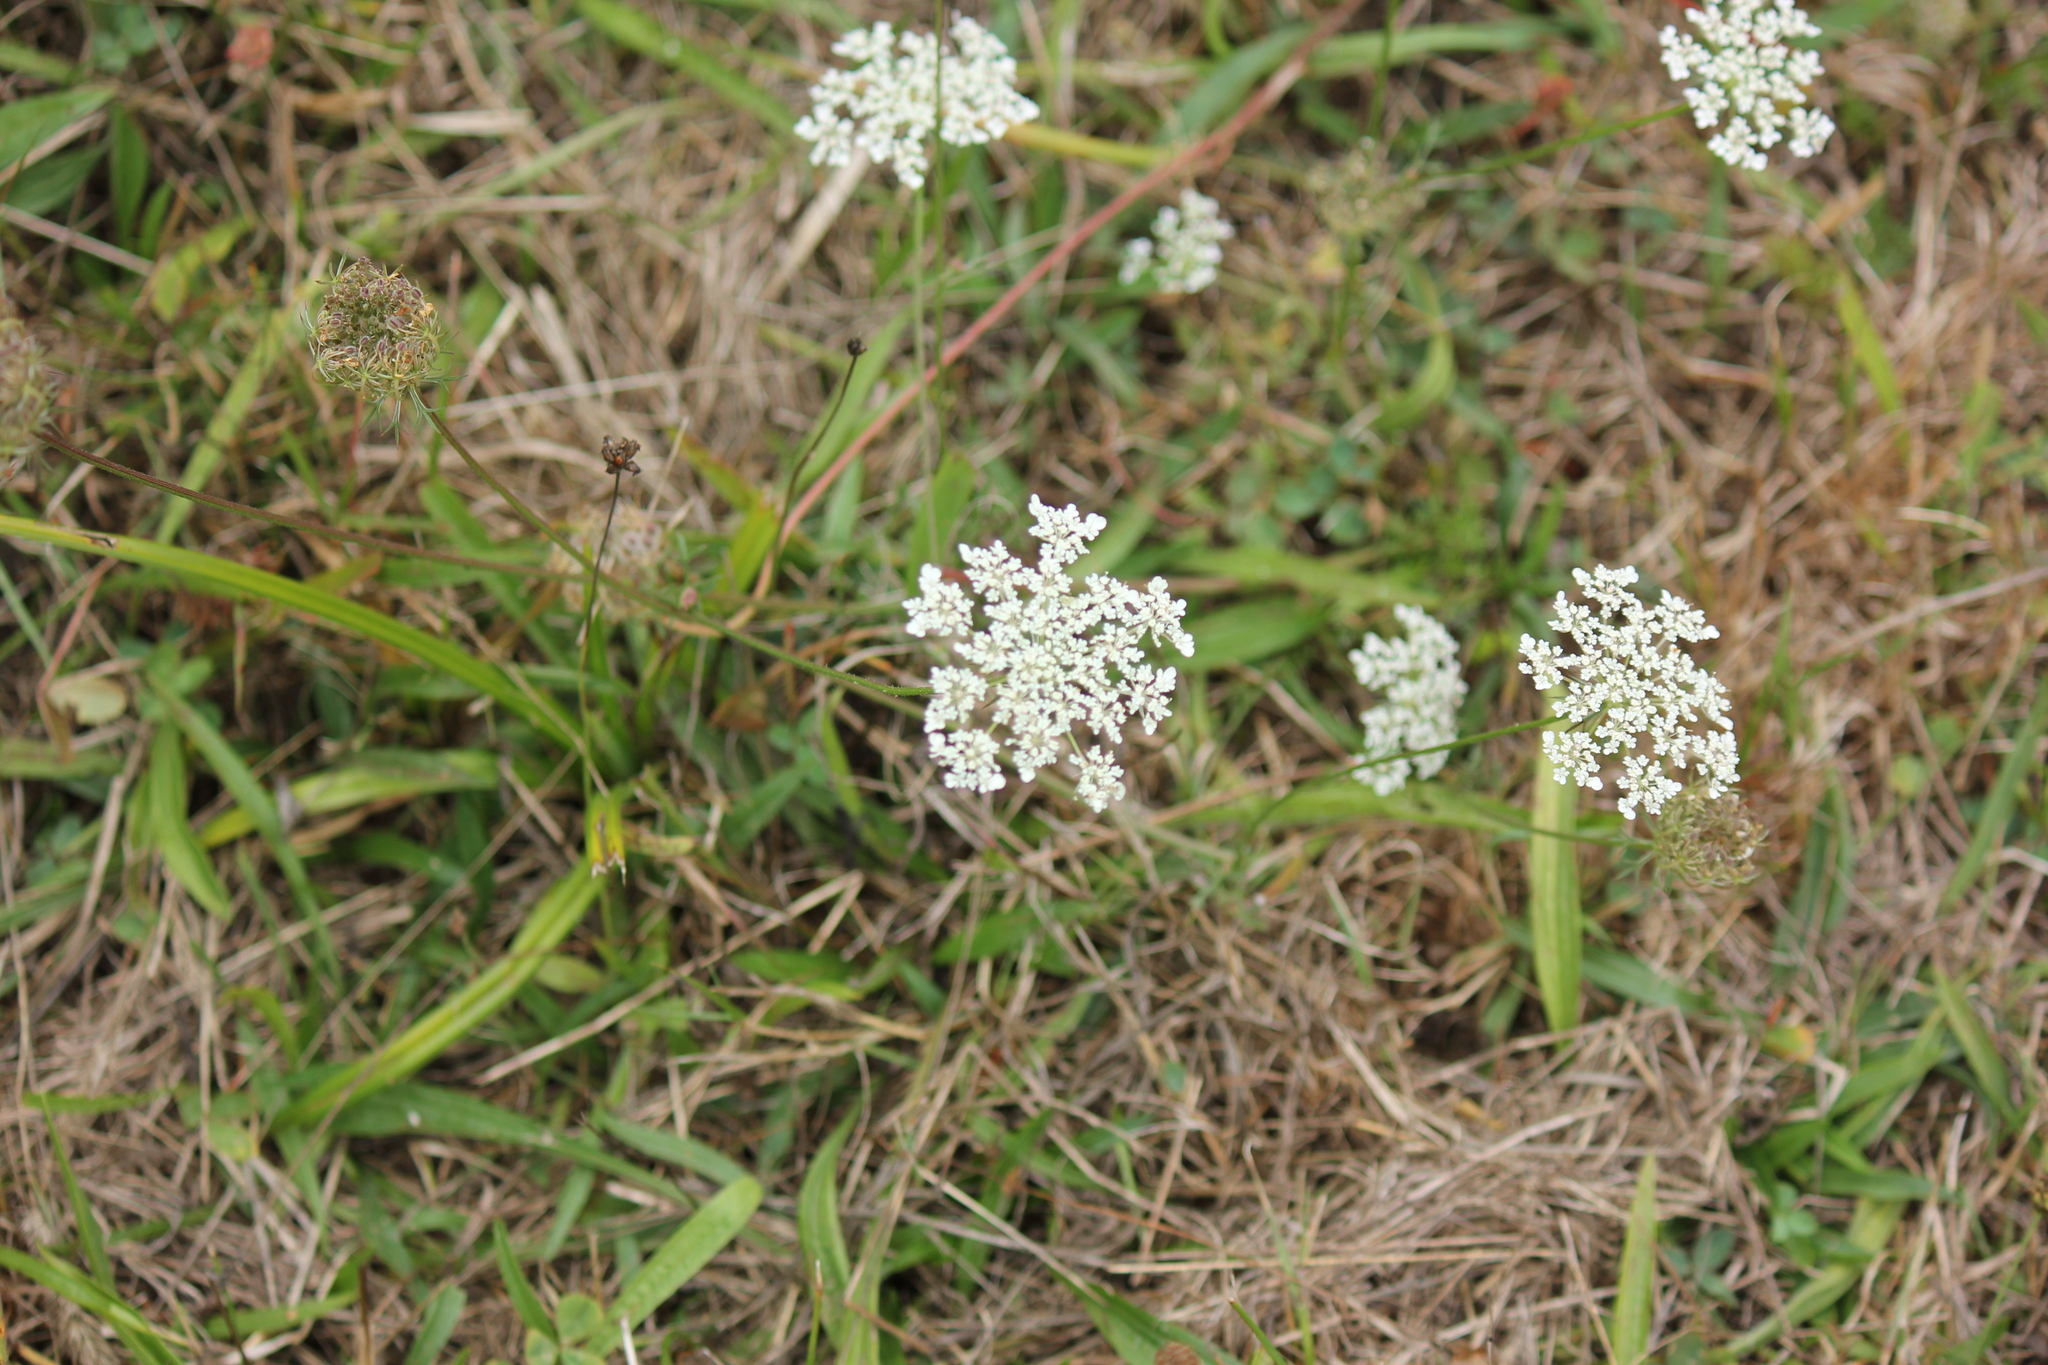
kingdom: Plantae
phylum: Tracheophyta
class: Magnoliopsida
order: Apiales
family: Apiaceae
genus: Daucus
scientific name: Daucus carota
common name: Wild carrot
